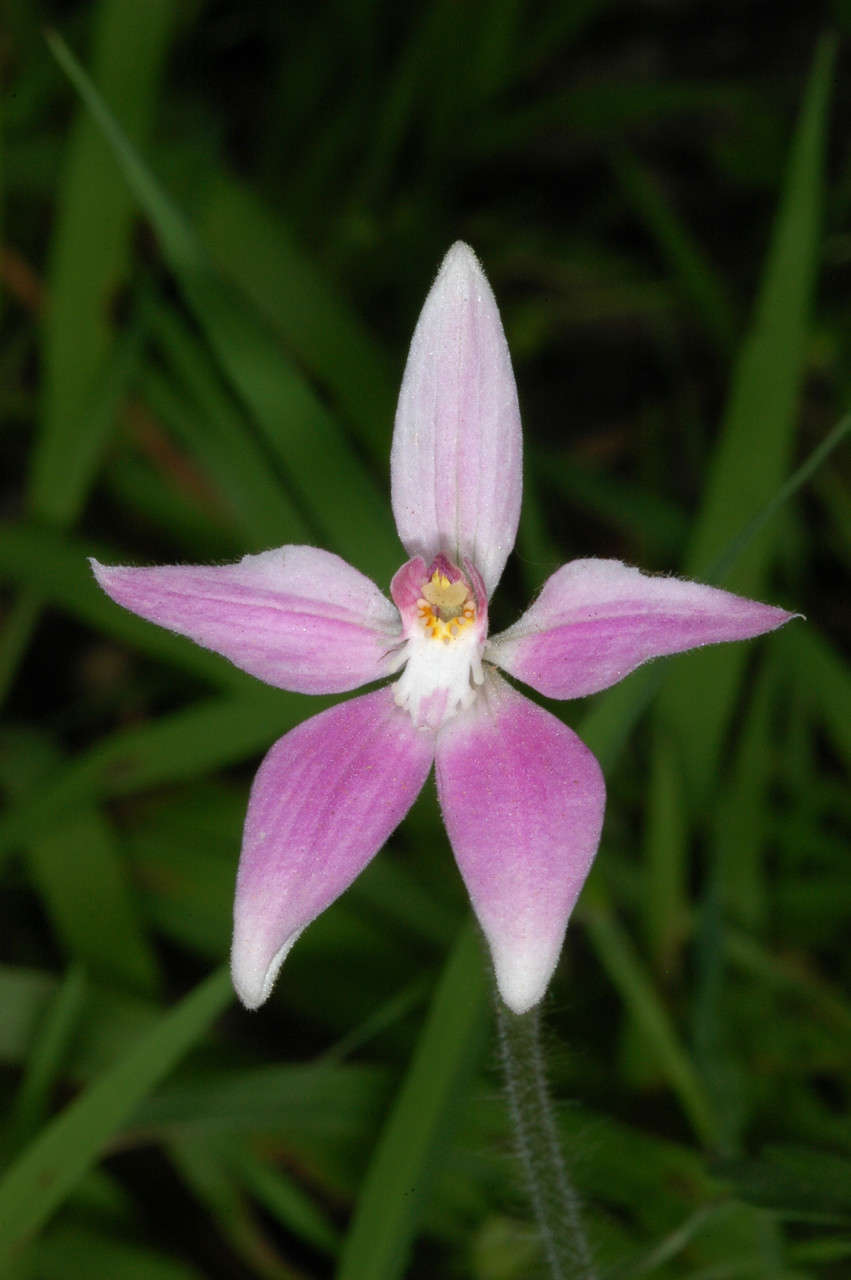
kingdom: Plantae
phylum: Tracheophyta
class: Liliopsida
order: Asparagales
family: Orchidaceae
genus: Caladenia
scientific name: Caladenia latifolia
